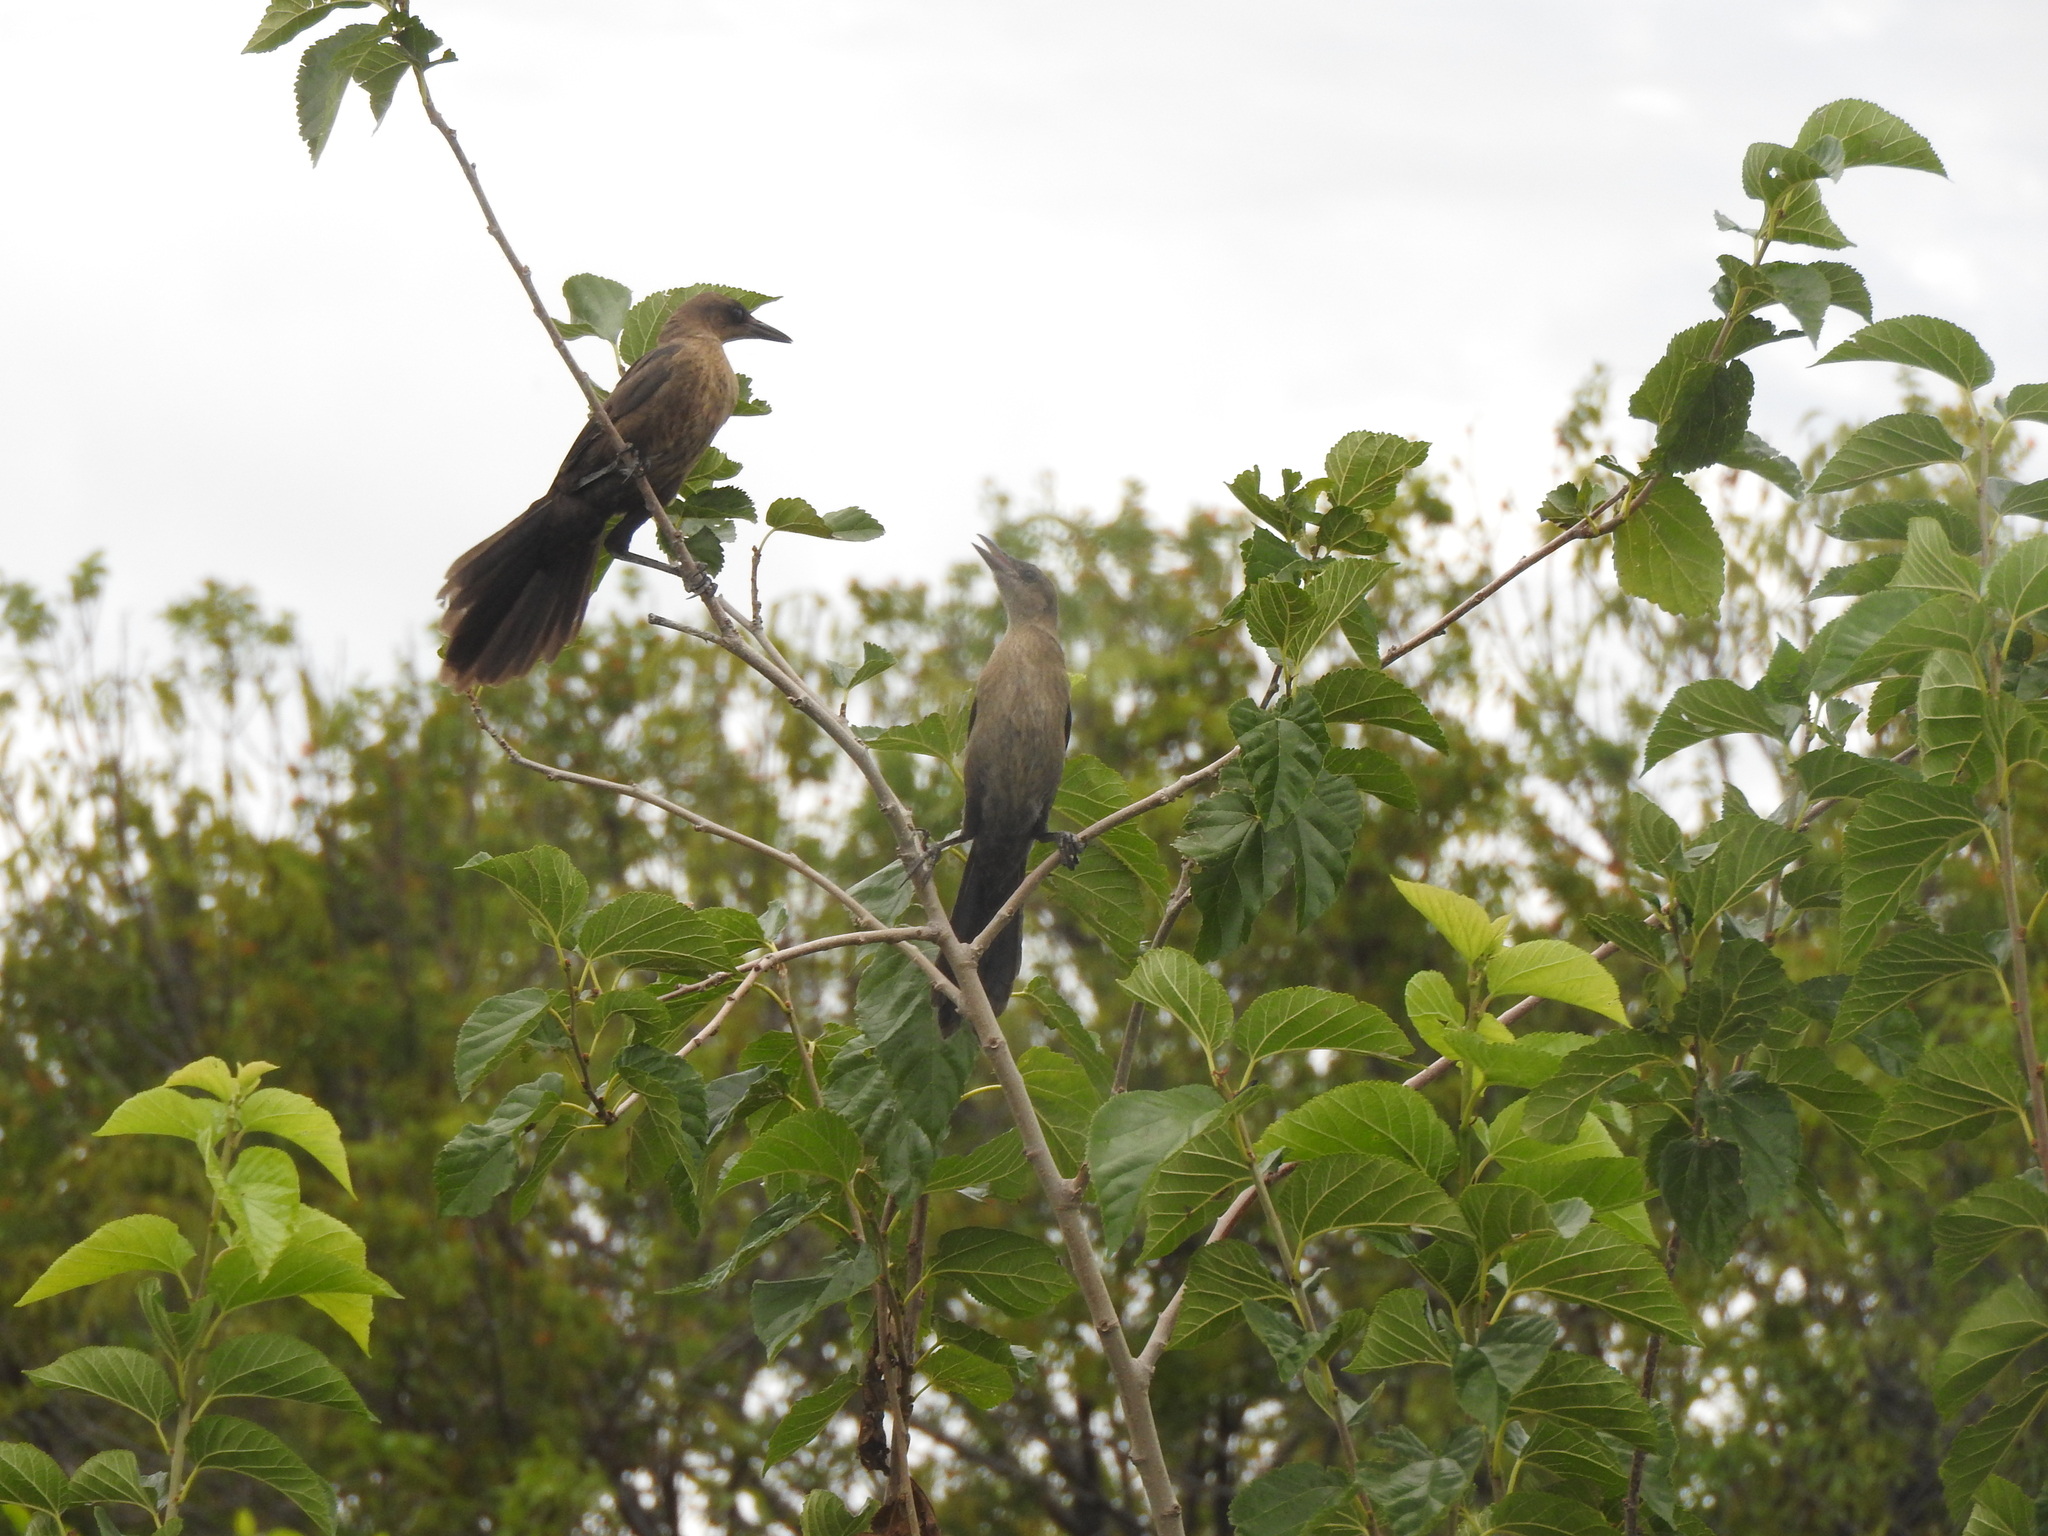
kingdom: Animalia
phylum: Chordata
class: Aves
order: Passeriformes
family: Icteridae
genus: Quiscalus
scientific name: Quiscalus mexicanus
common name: Great-tailed grackle
